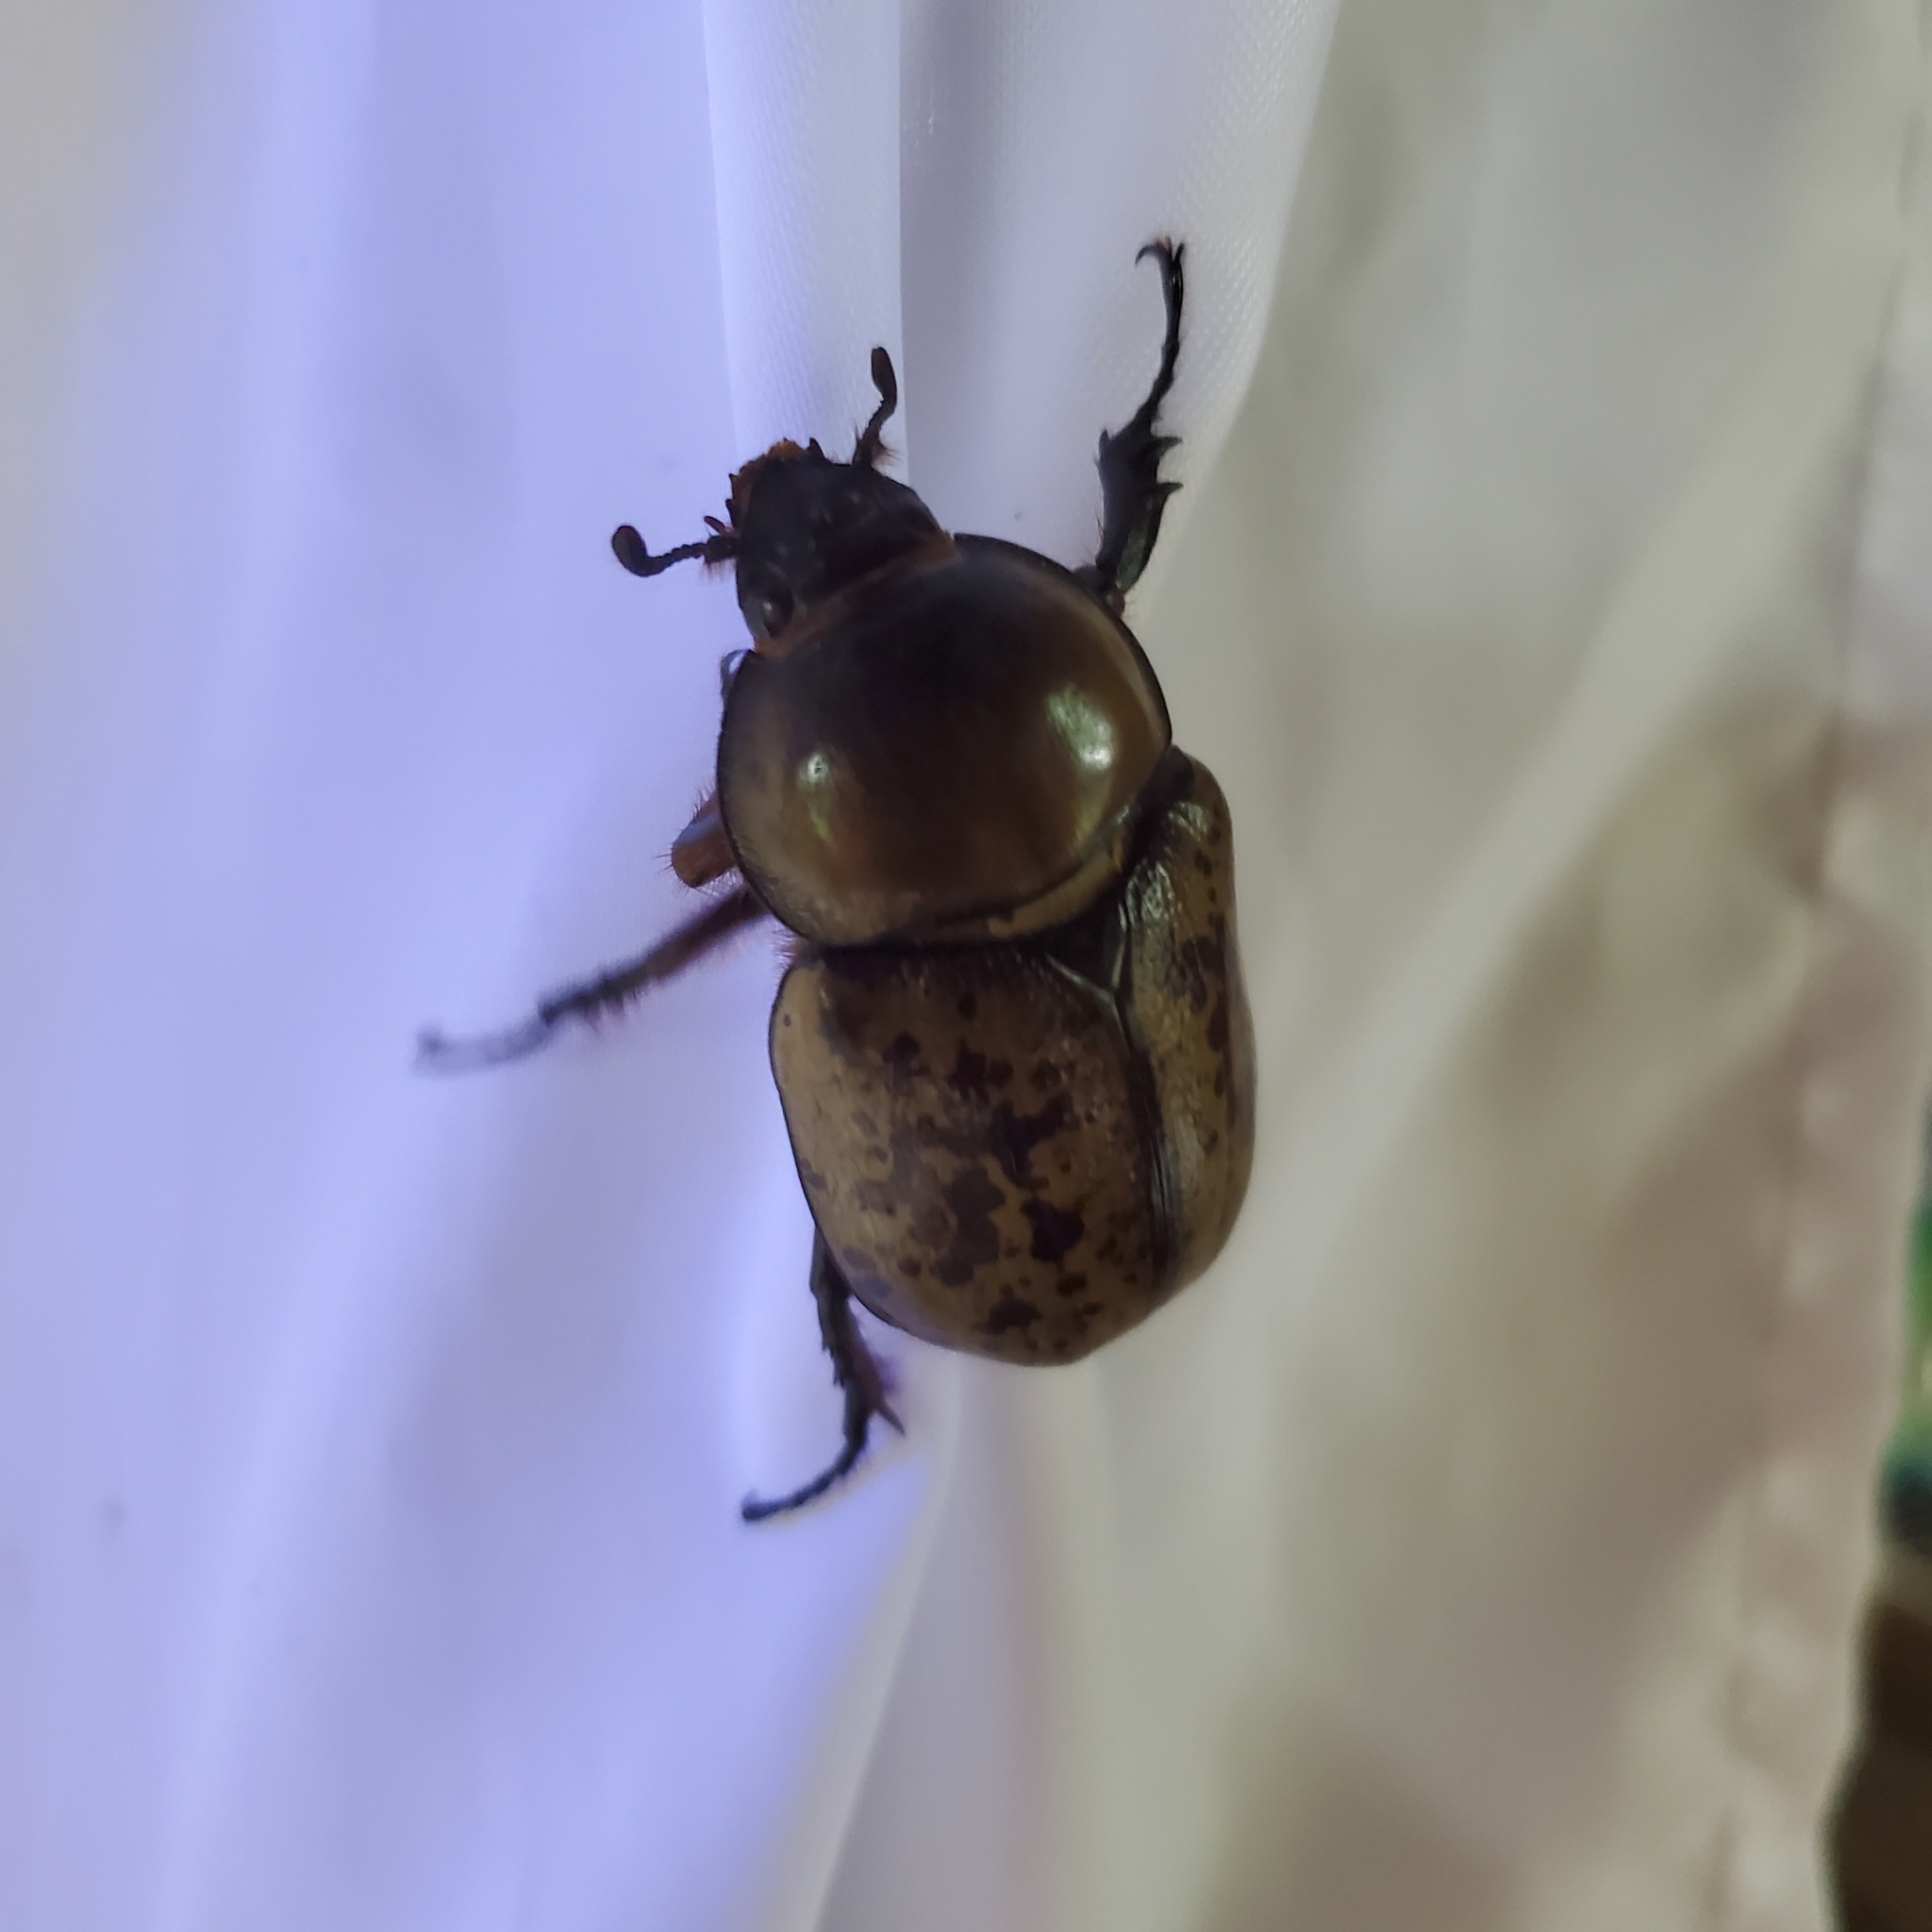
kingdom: Animalia
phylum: Arthropoda
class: Insecta
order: Coleoptera
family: Scarabaeidae
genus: Dynastes
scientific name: Dynastes tityus
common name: Eastern hercules beetle
